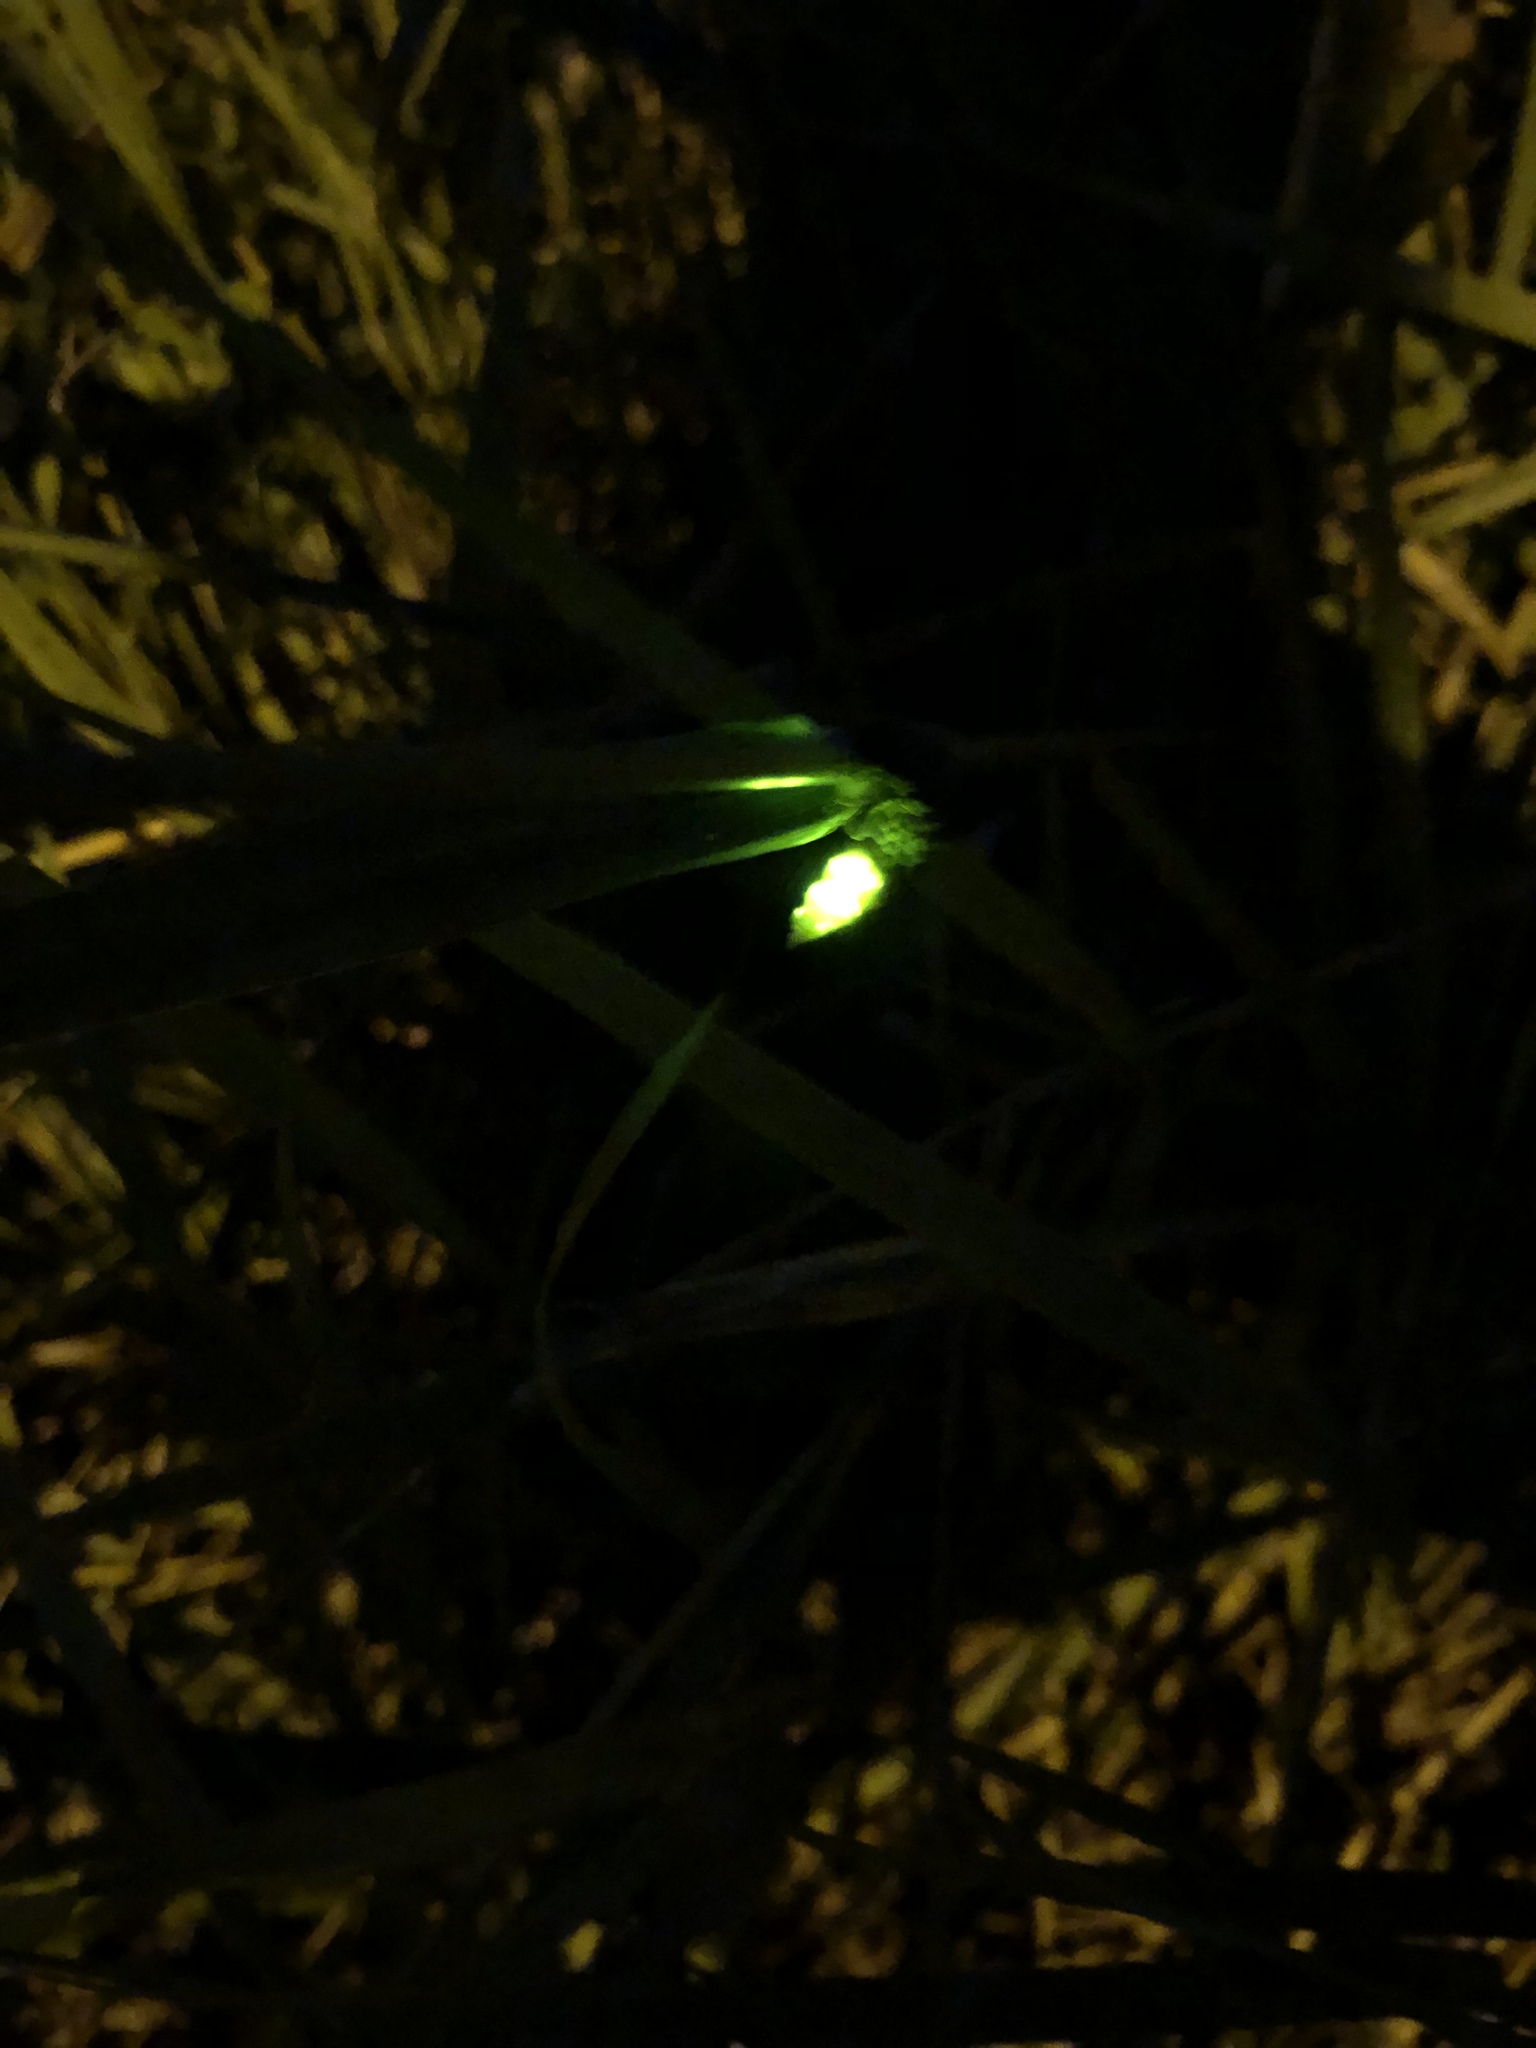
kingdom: Animalia
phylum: Arthropoda
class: Insecta
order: Coleoptera
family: Lampyridae
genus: Lampyris
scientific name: Lampyris noctiluca
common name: Glow-worm
